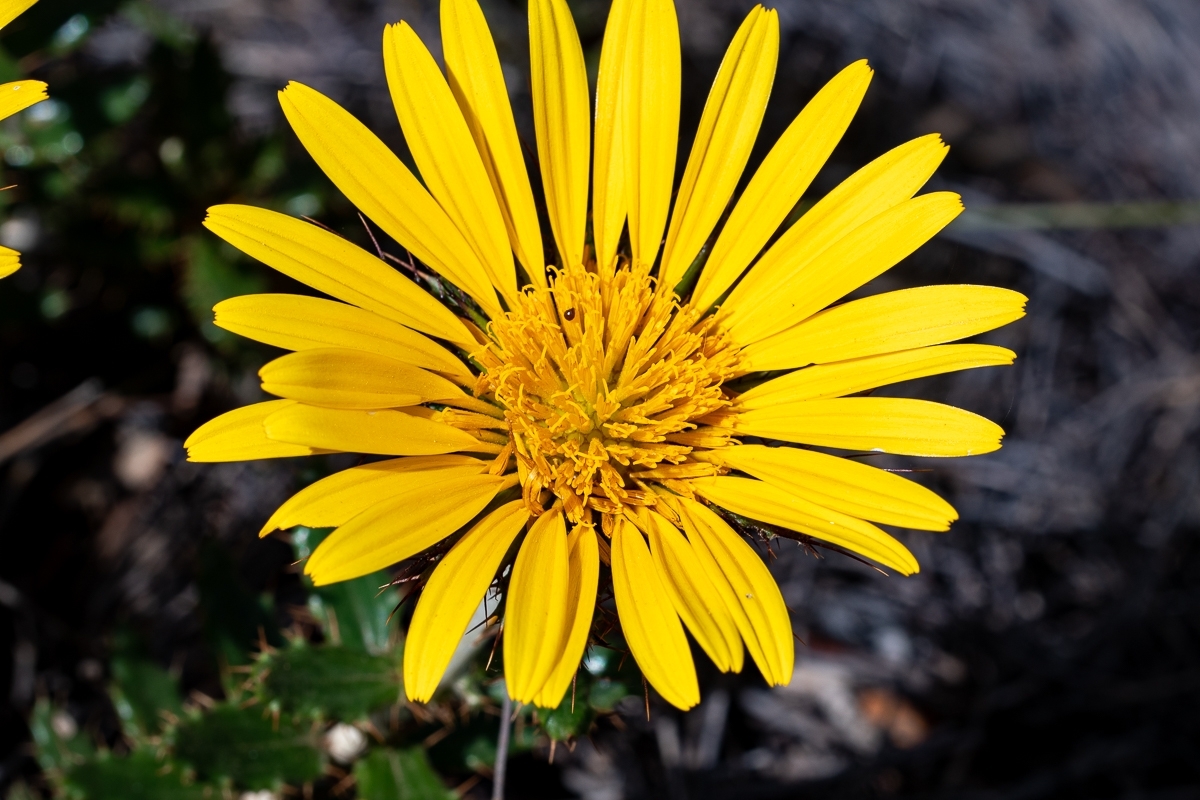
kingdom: Plantae
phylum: Tracheophyta
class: Magnoliopsida
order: Asterales
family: Asteraceae
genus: Berkheya
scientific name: Berkheya barbata
